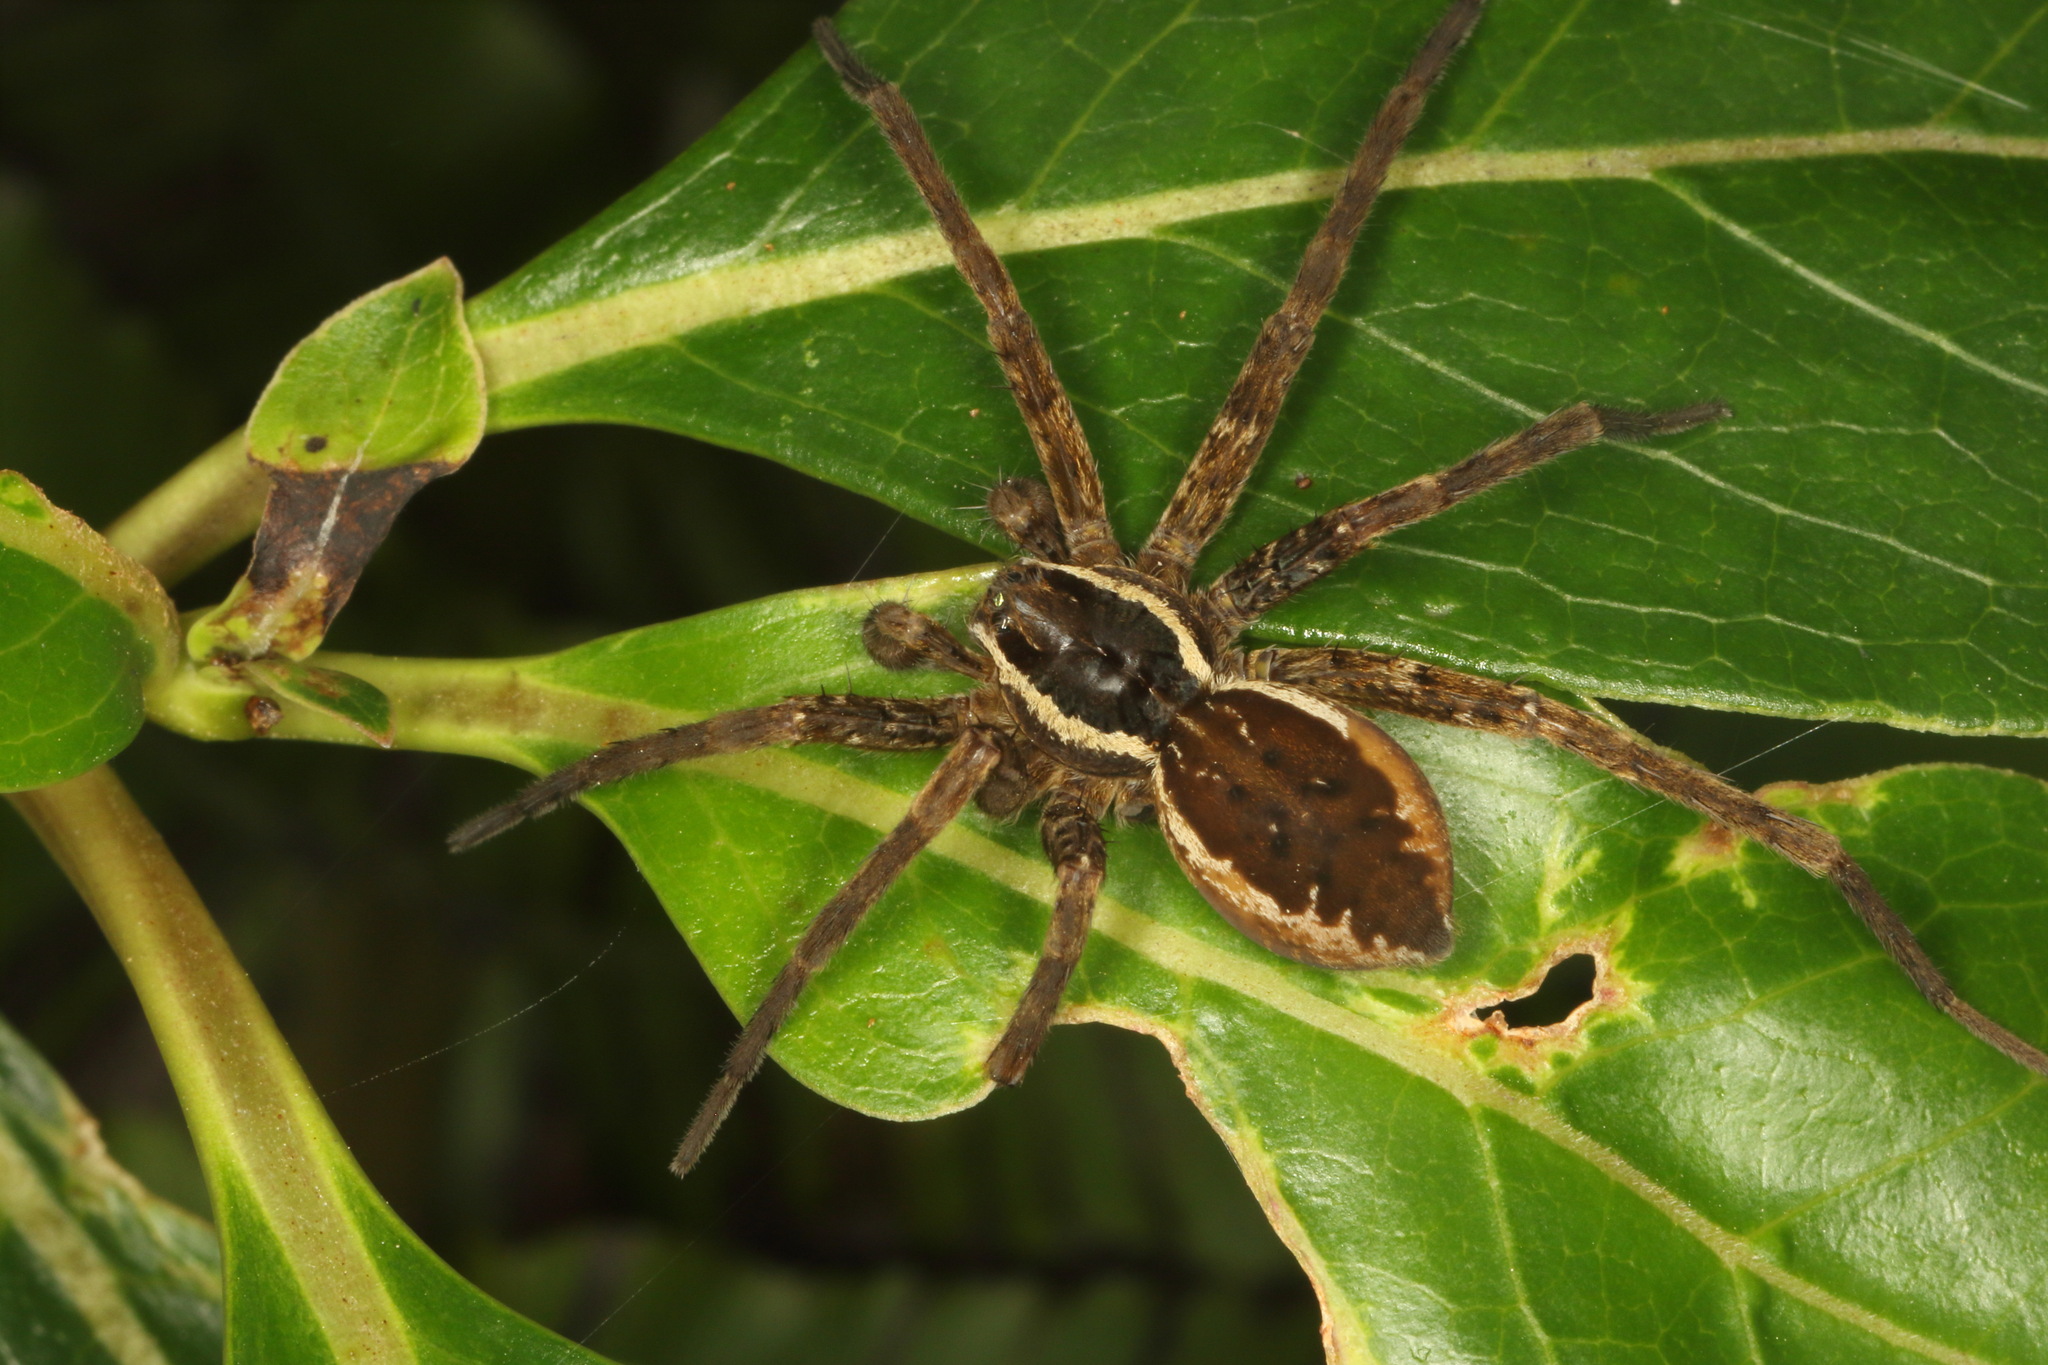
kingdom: Animalia
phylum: Arthropoda
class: Arachnida
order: Araneae
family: Pisauridae
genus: Dolomedes
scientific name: Dolomedes dondalei
